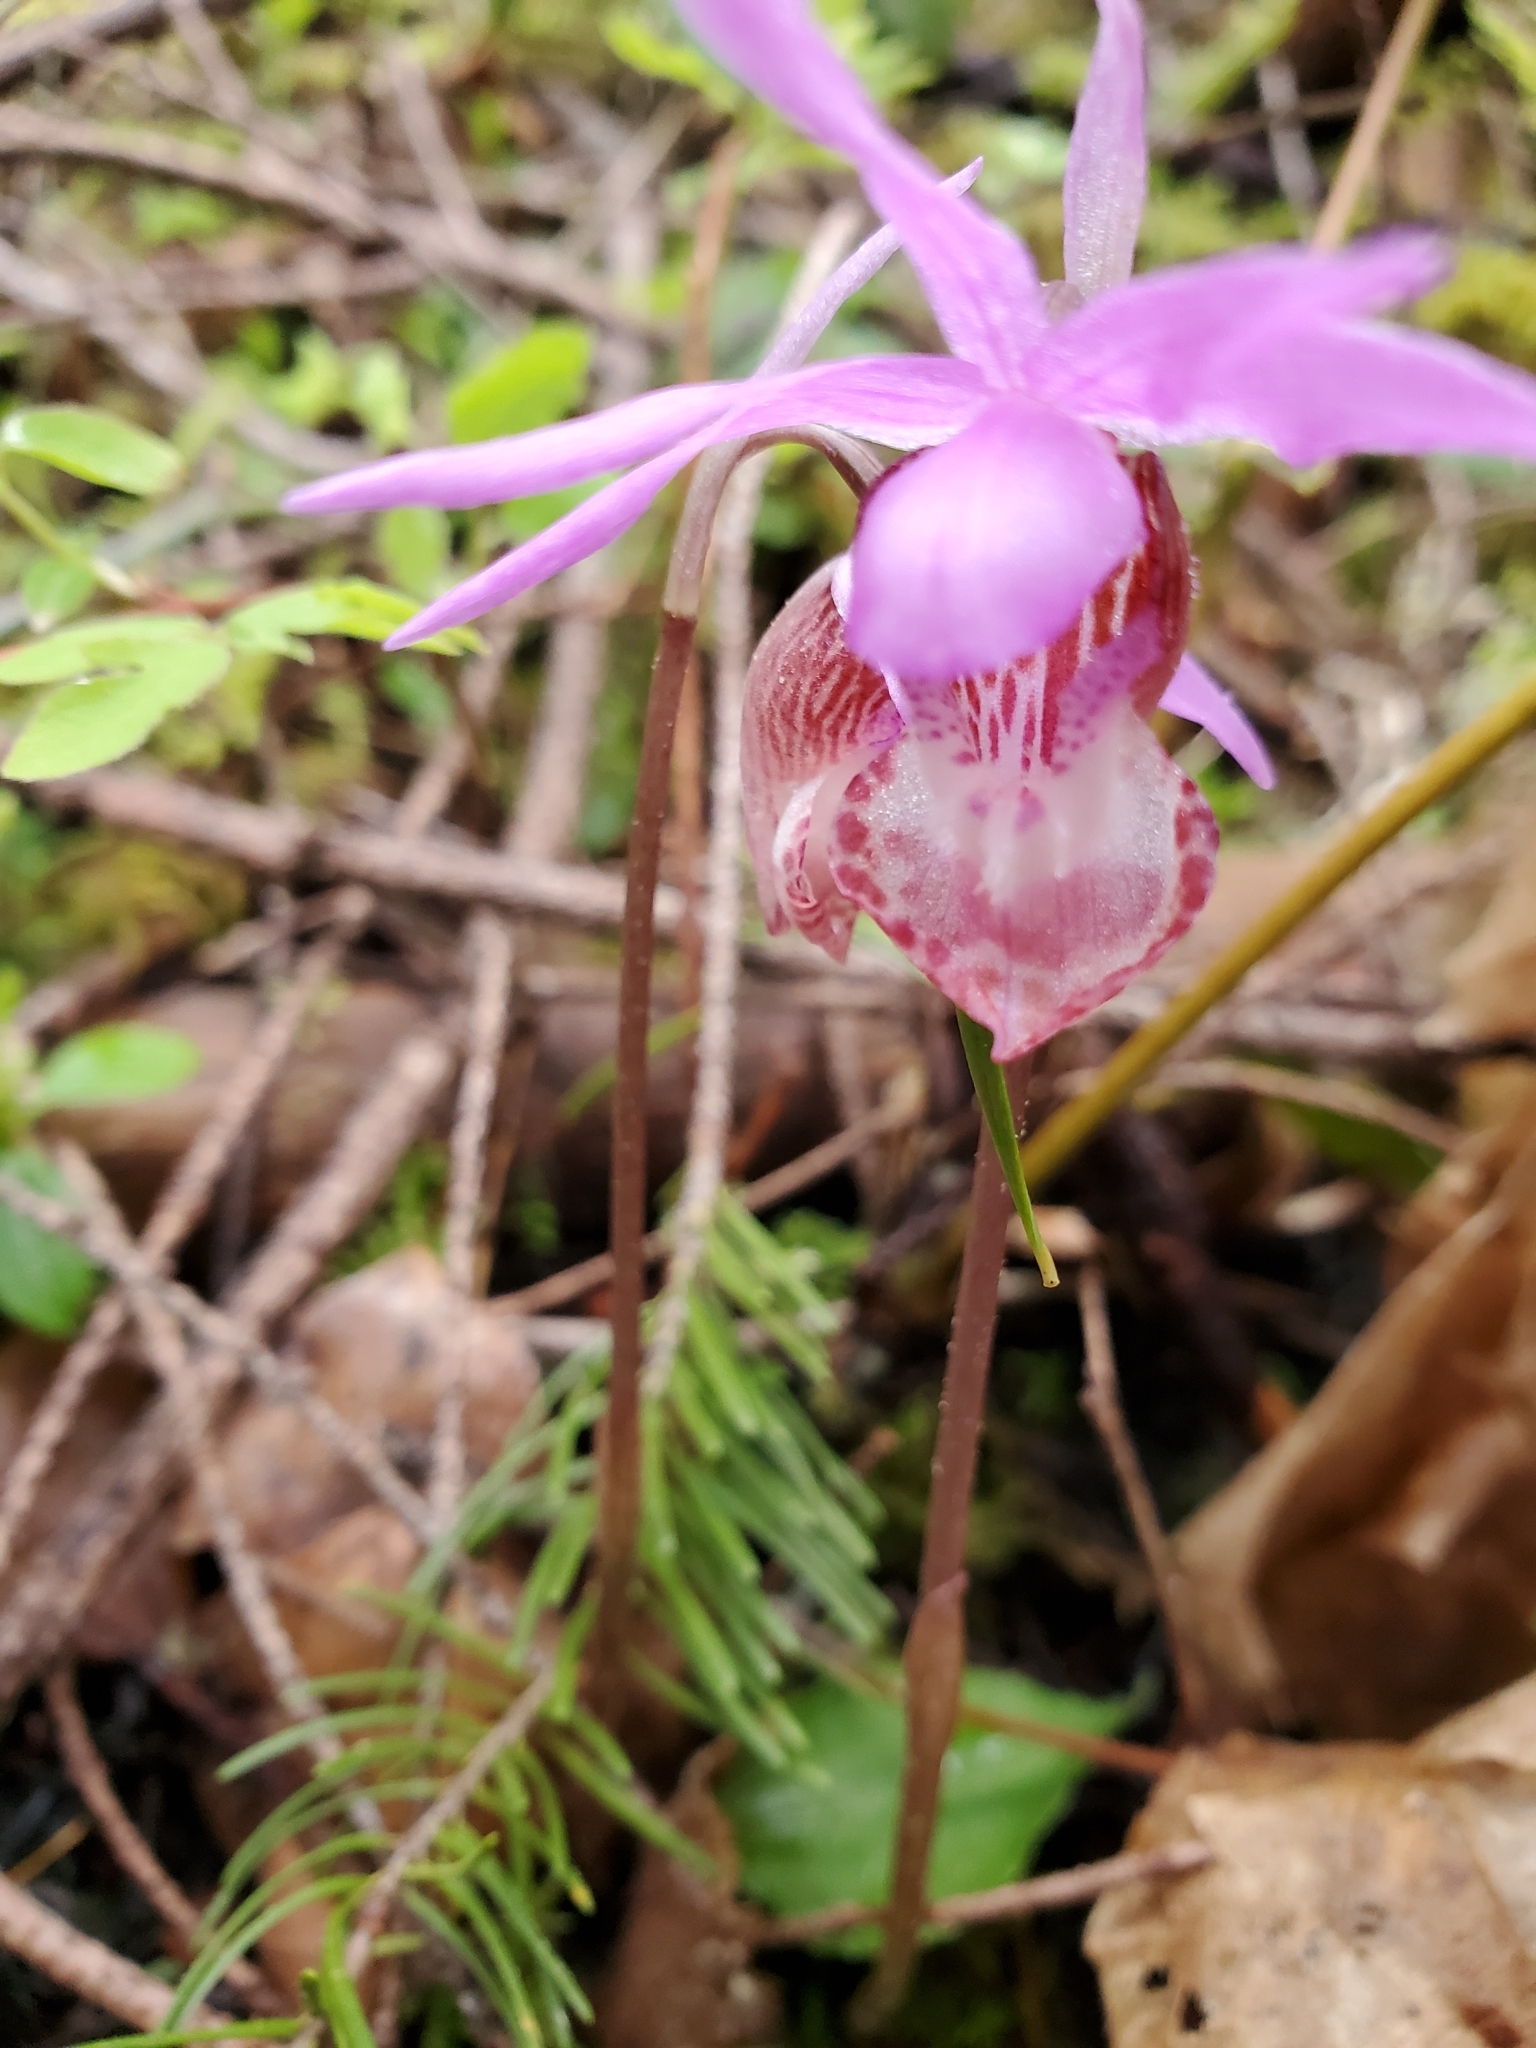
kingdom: Plantae
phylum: Tracheophyta
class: Liliopsida
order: Asparagales
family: Orchidaceae
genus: Calypso
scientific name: Calypso bulbosa
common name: Calypso
